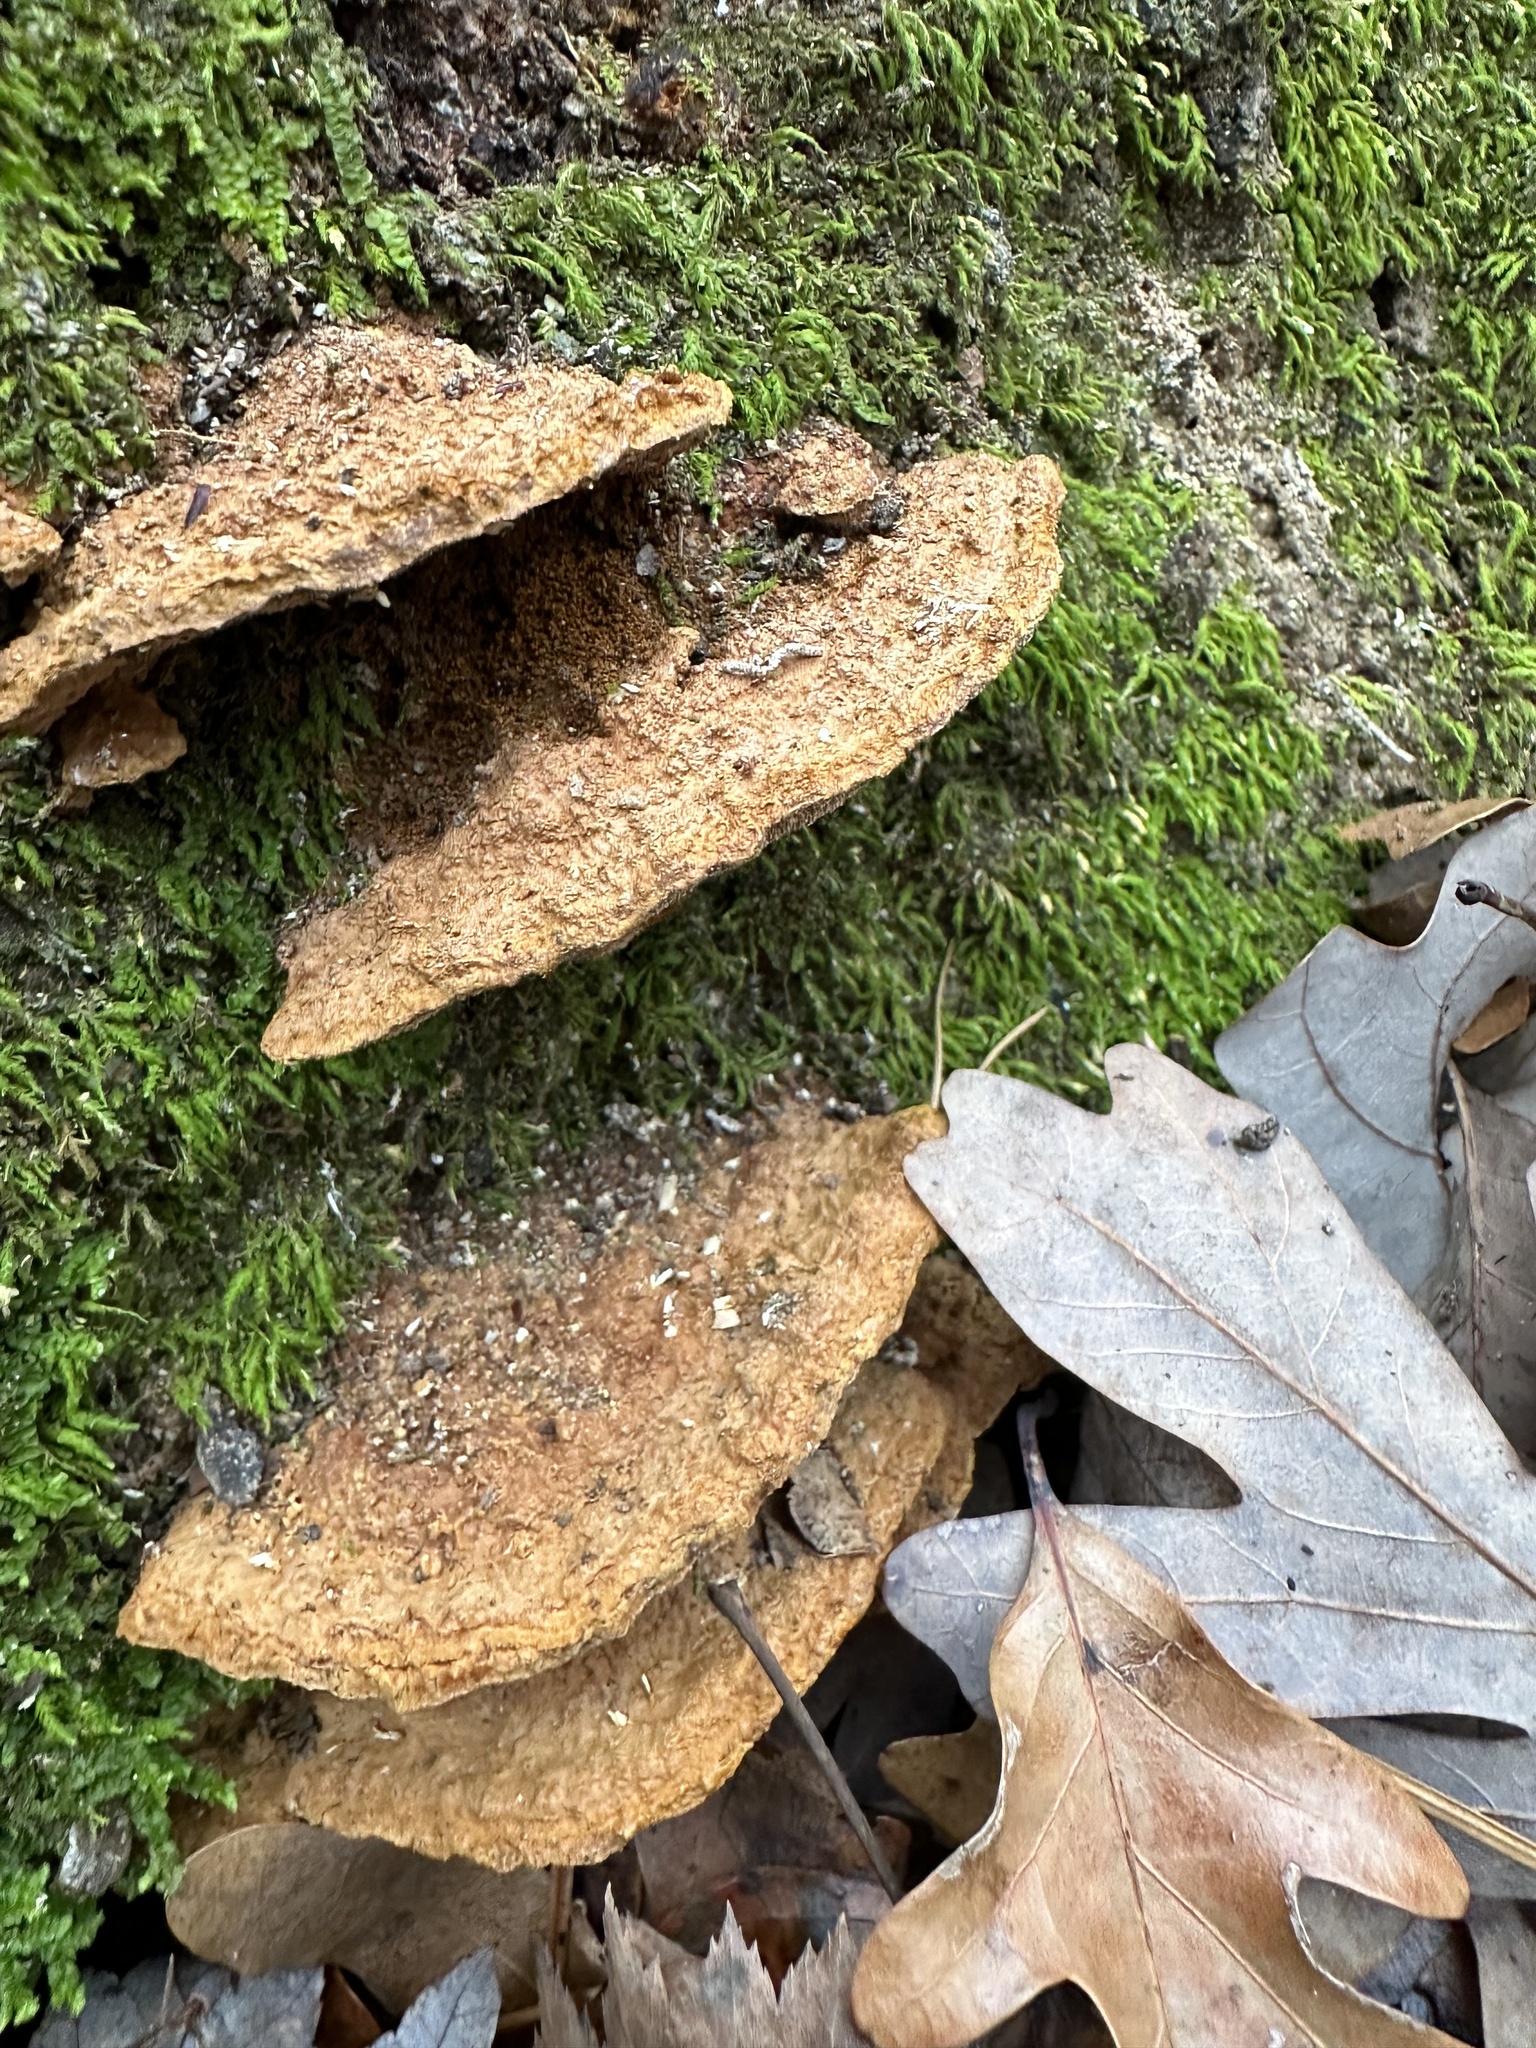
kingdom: Fungi
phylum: Basidiomycota
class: Agaricomycetes
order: Hymenochaetales
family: Hymenochaetaceae
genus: Phellinus
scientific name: Phellinus gilvus
